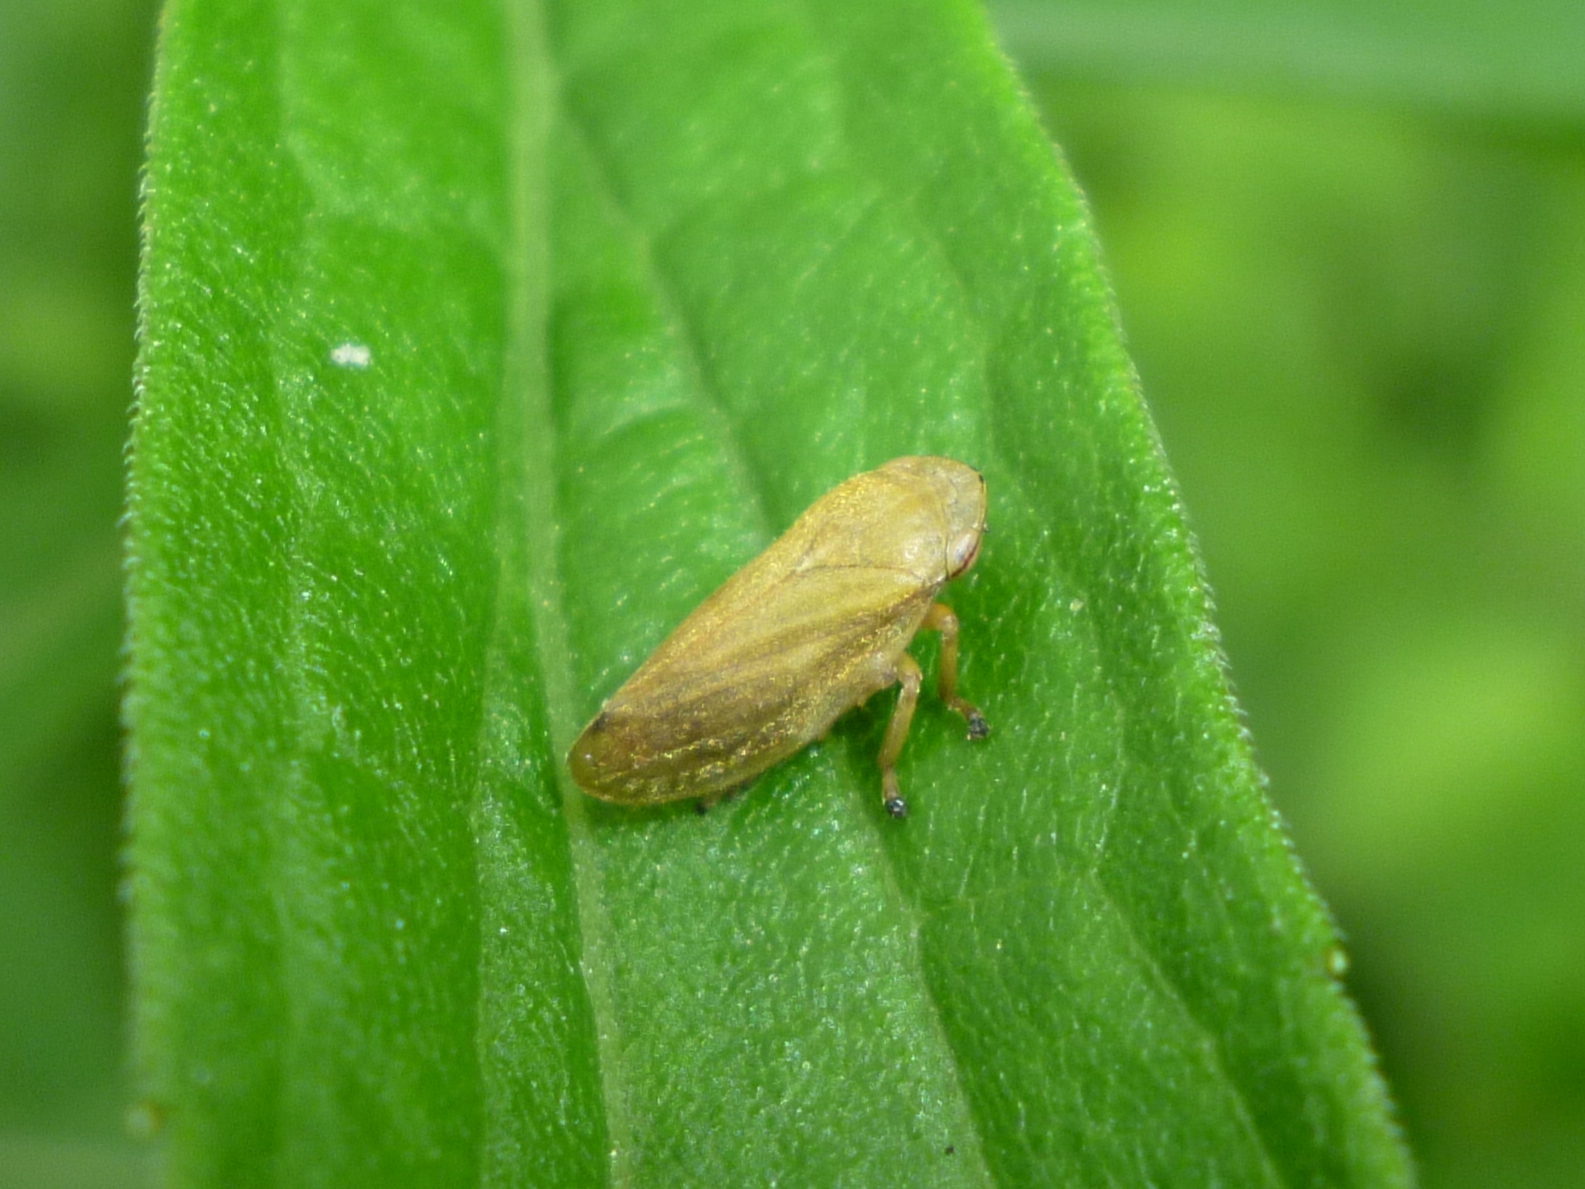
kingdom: Animalia
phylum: Arthropoda
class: Insecta
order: Hemiptera
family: Aphrophoridae
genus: Philaenus
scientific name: Philaenus spumarius
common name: Meadow spittlebug
